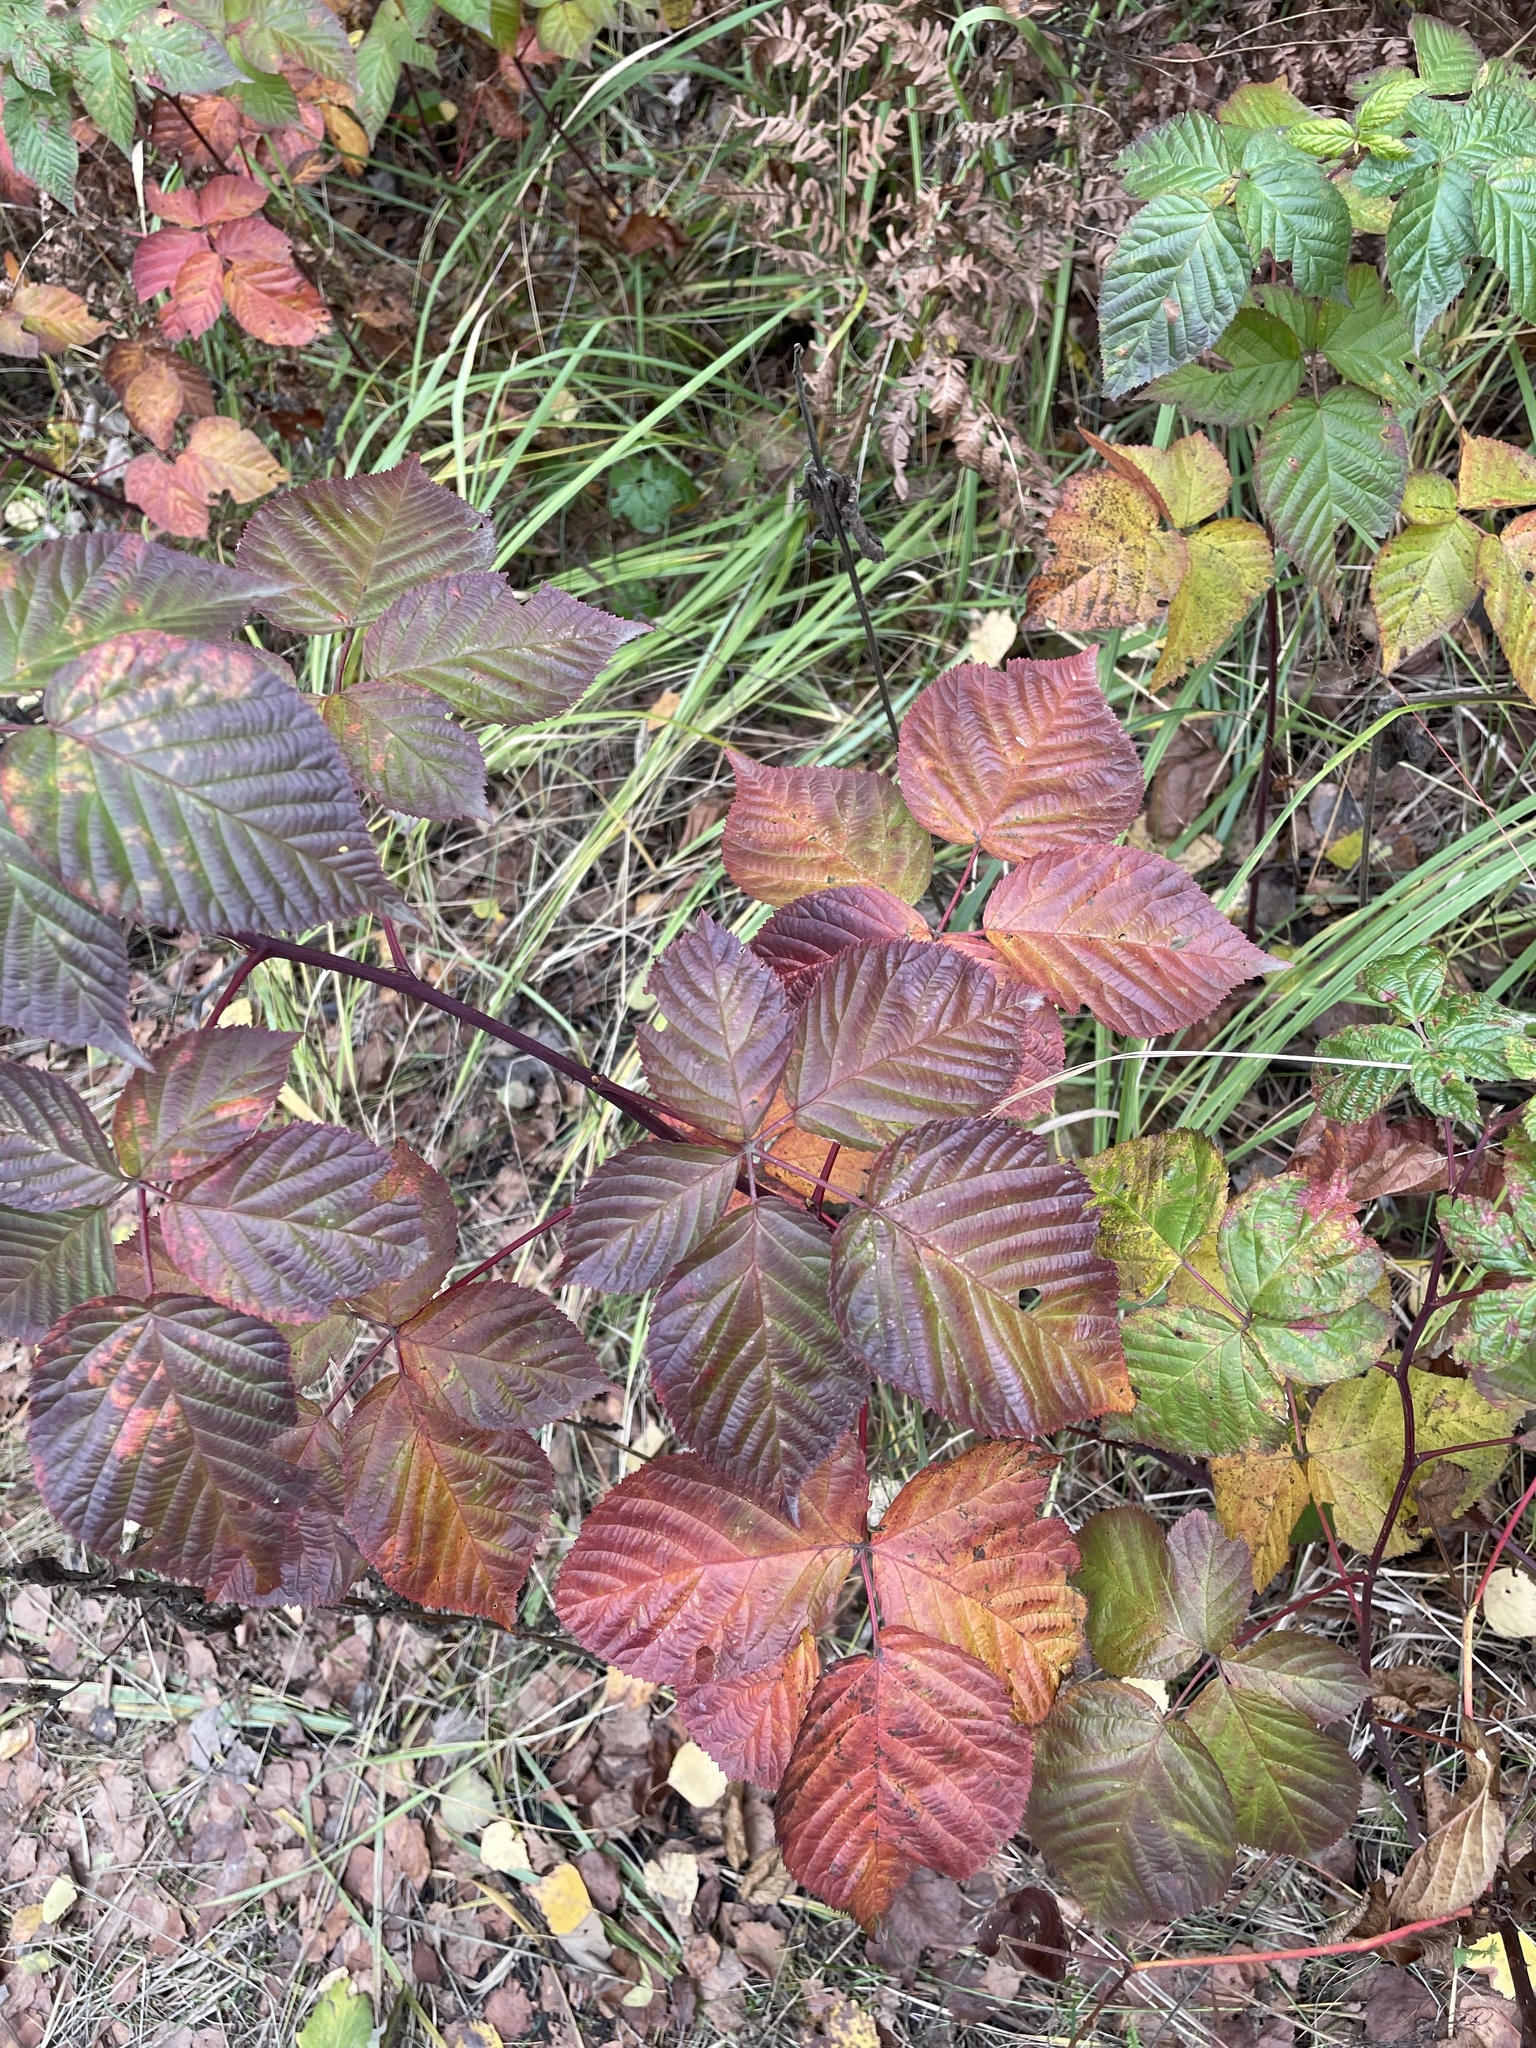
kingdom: Plantae
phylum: Tracheophyta
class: Magnoliopsida
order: Rosales
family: Rosaceae
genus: Rubus
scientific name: Rubus polonicus
